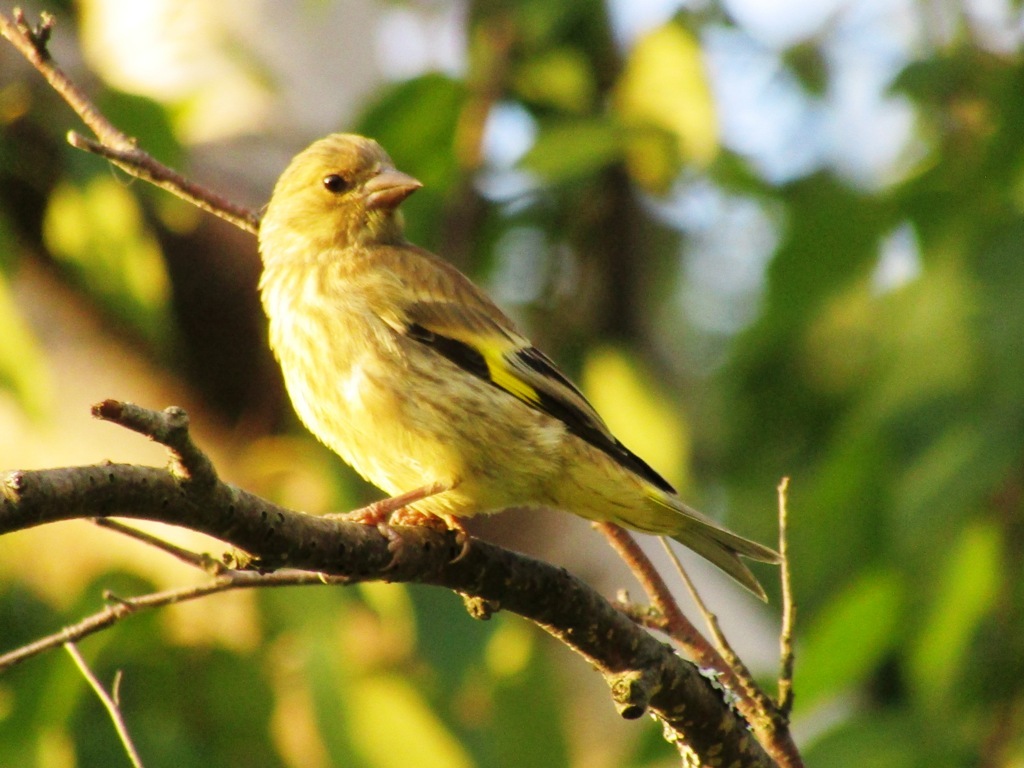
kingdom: Plantae
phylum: Tracheophyta
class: Liliopsida
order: Poales
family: Poaceae
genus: Chloris
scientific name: Chloris sinica
